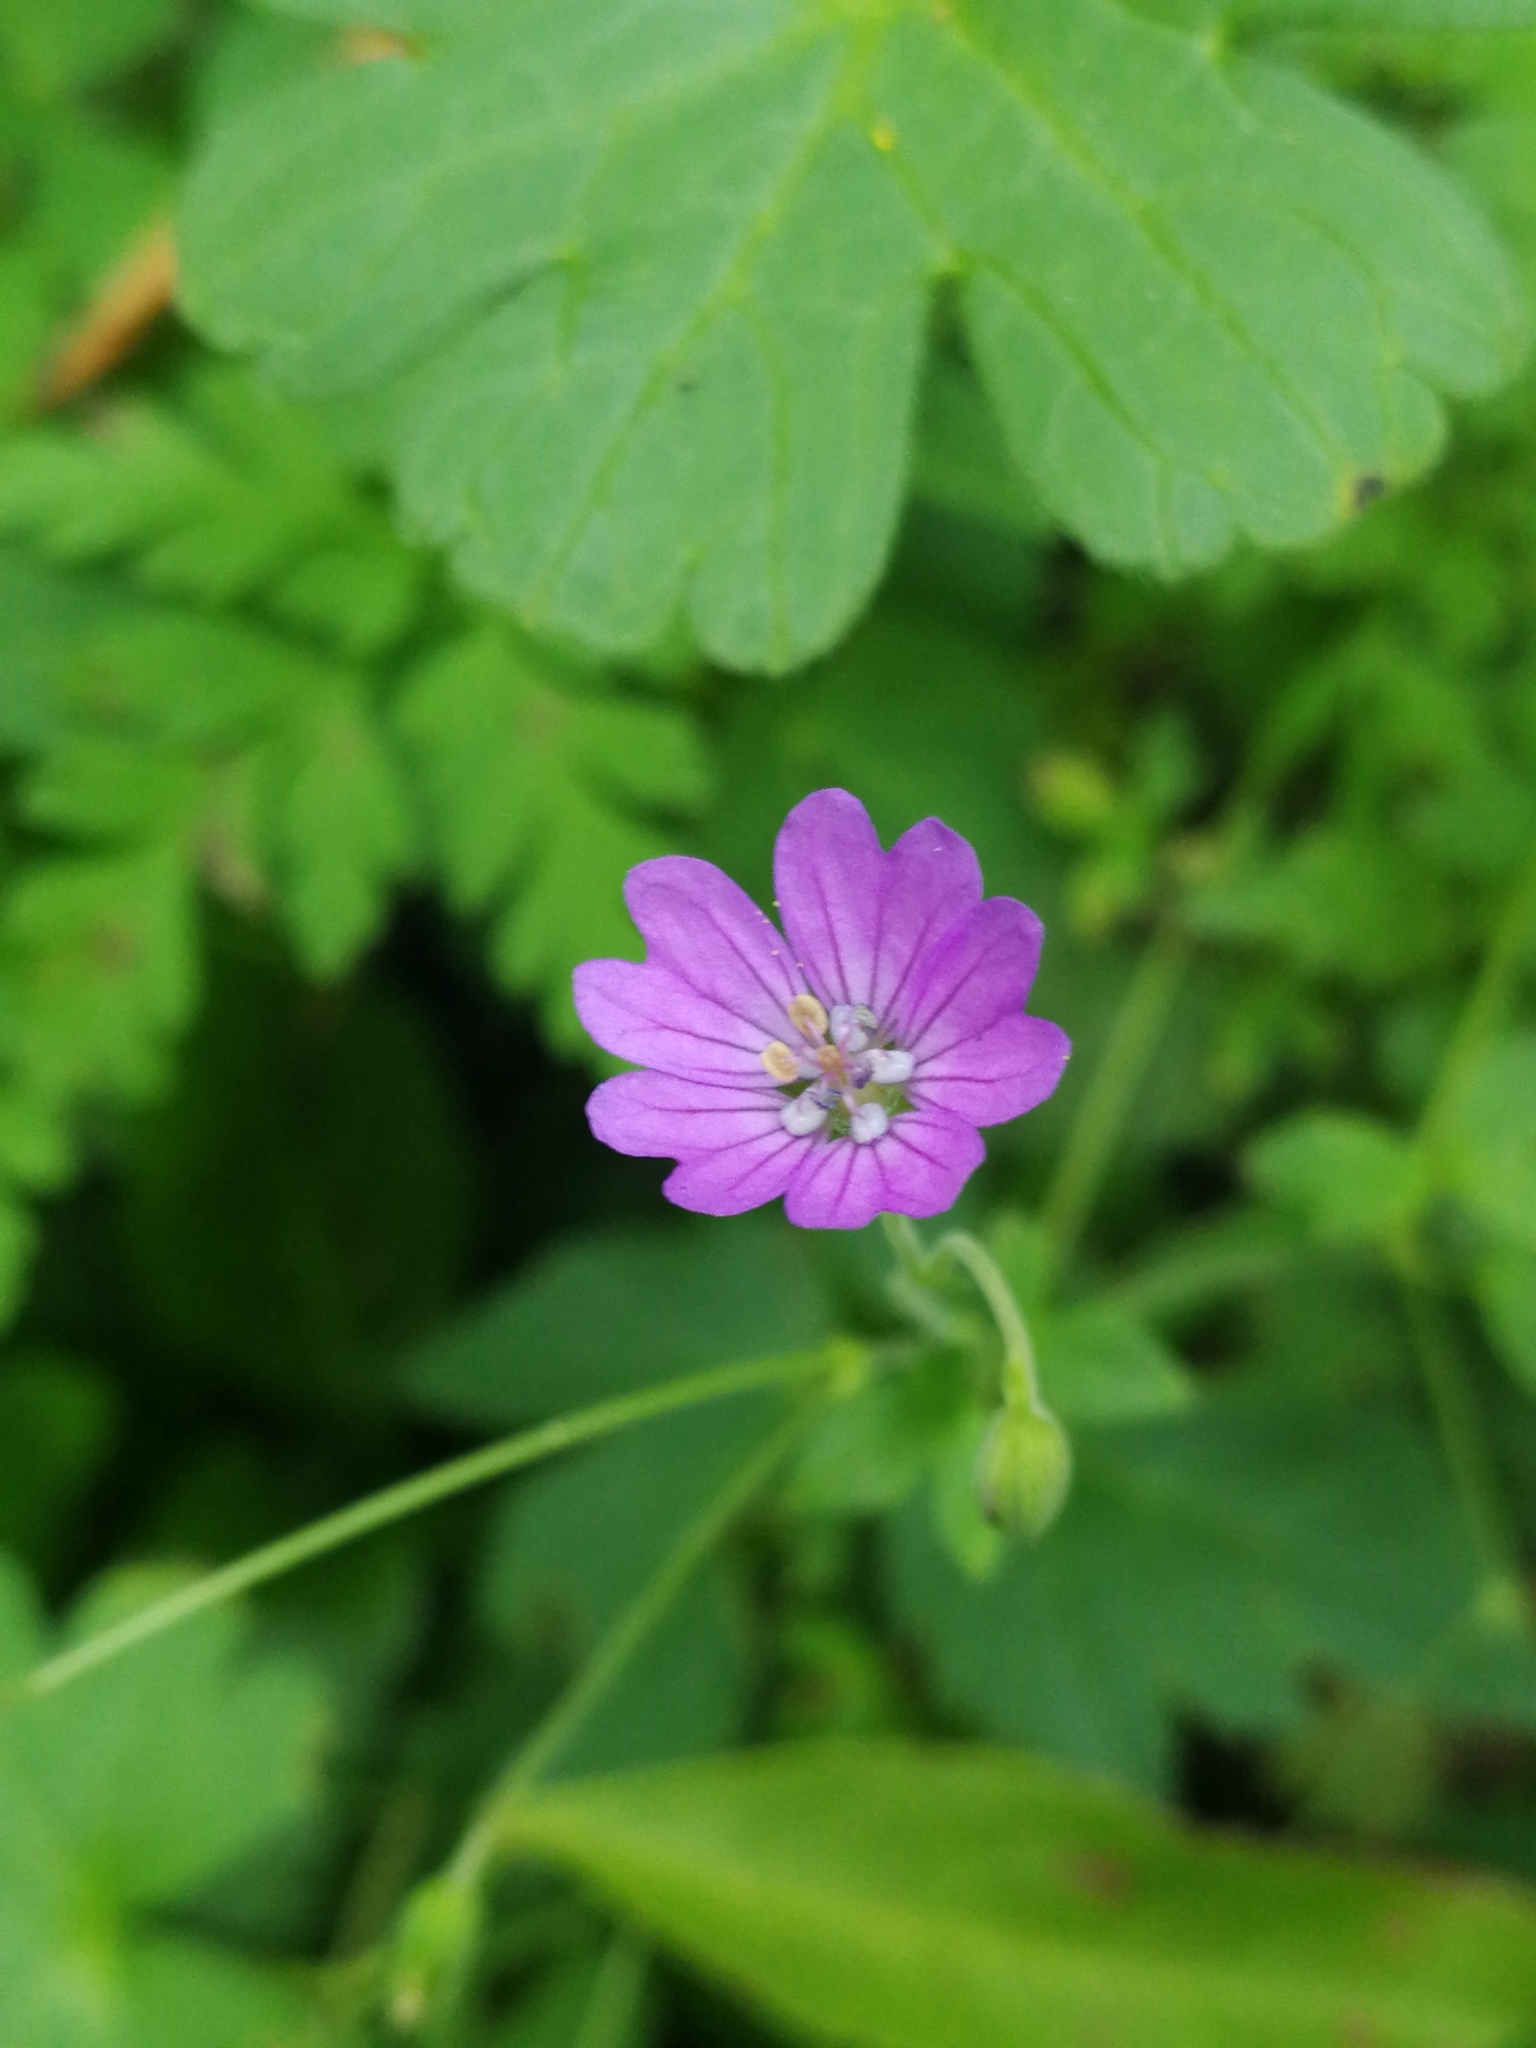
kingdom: Plantae
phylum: Tracheophyta
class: Magnoliopsida
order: Geraniales
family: Geraniaceae
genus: Geranium
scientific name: Geranium molle
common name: Dove's-foot crane's-bill
